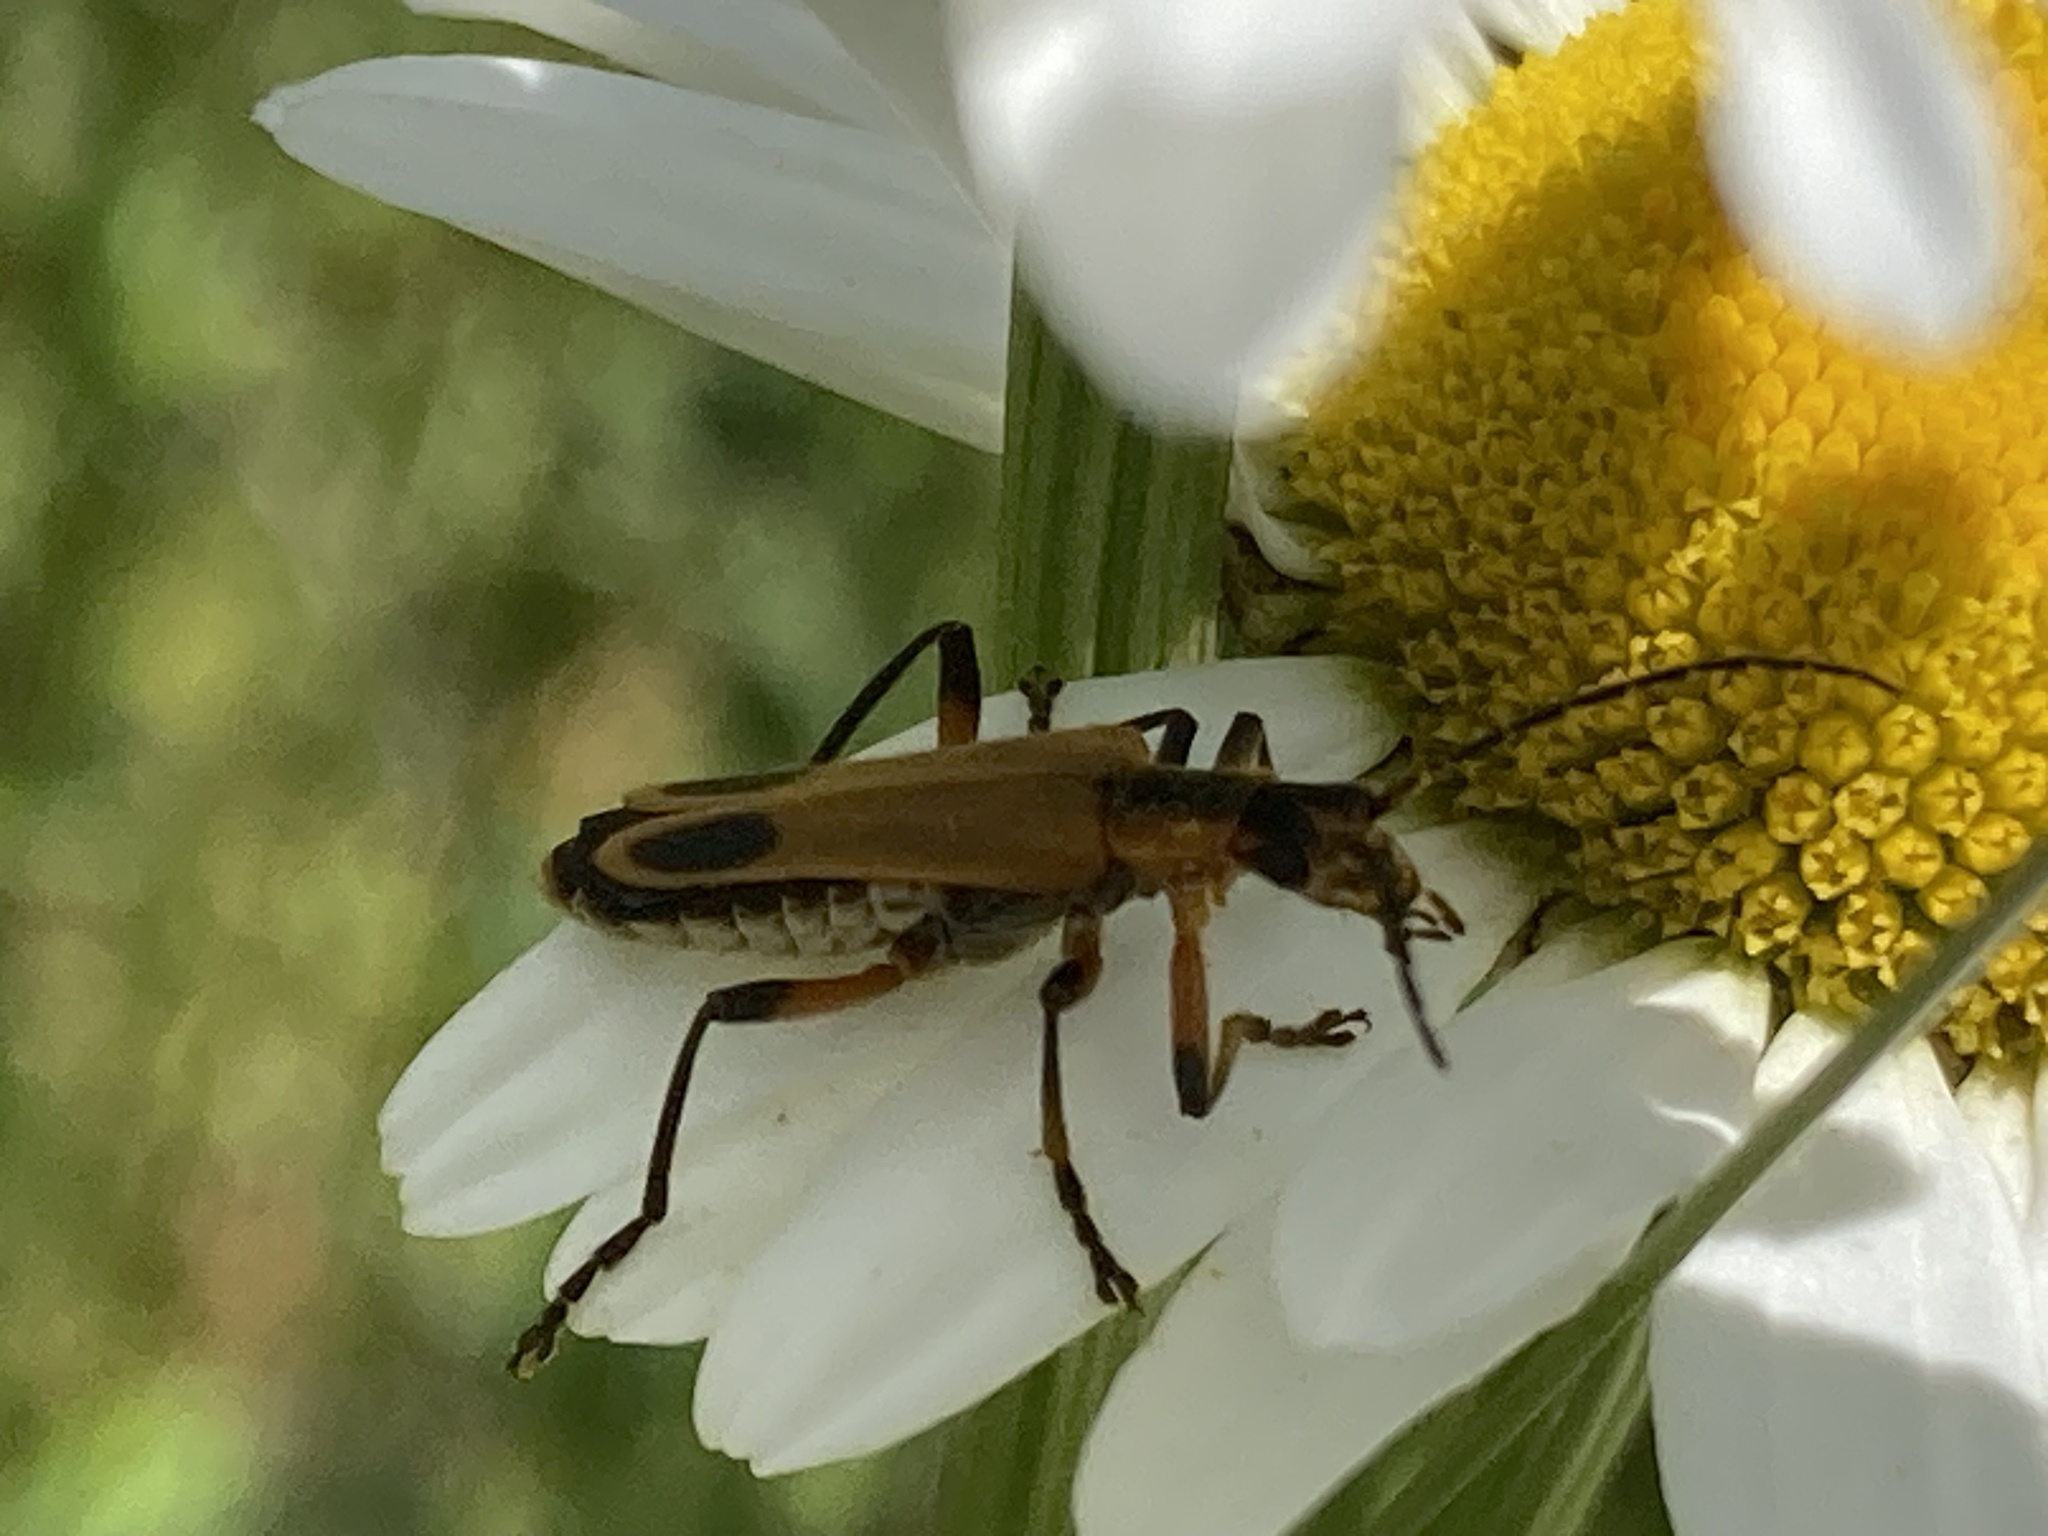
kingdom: Animalia
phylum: Arthropoda
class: Insecta
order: Coleoptera
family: Cantharidae
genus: Chauliognathus
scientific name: Chauliognathus marginatus
